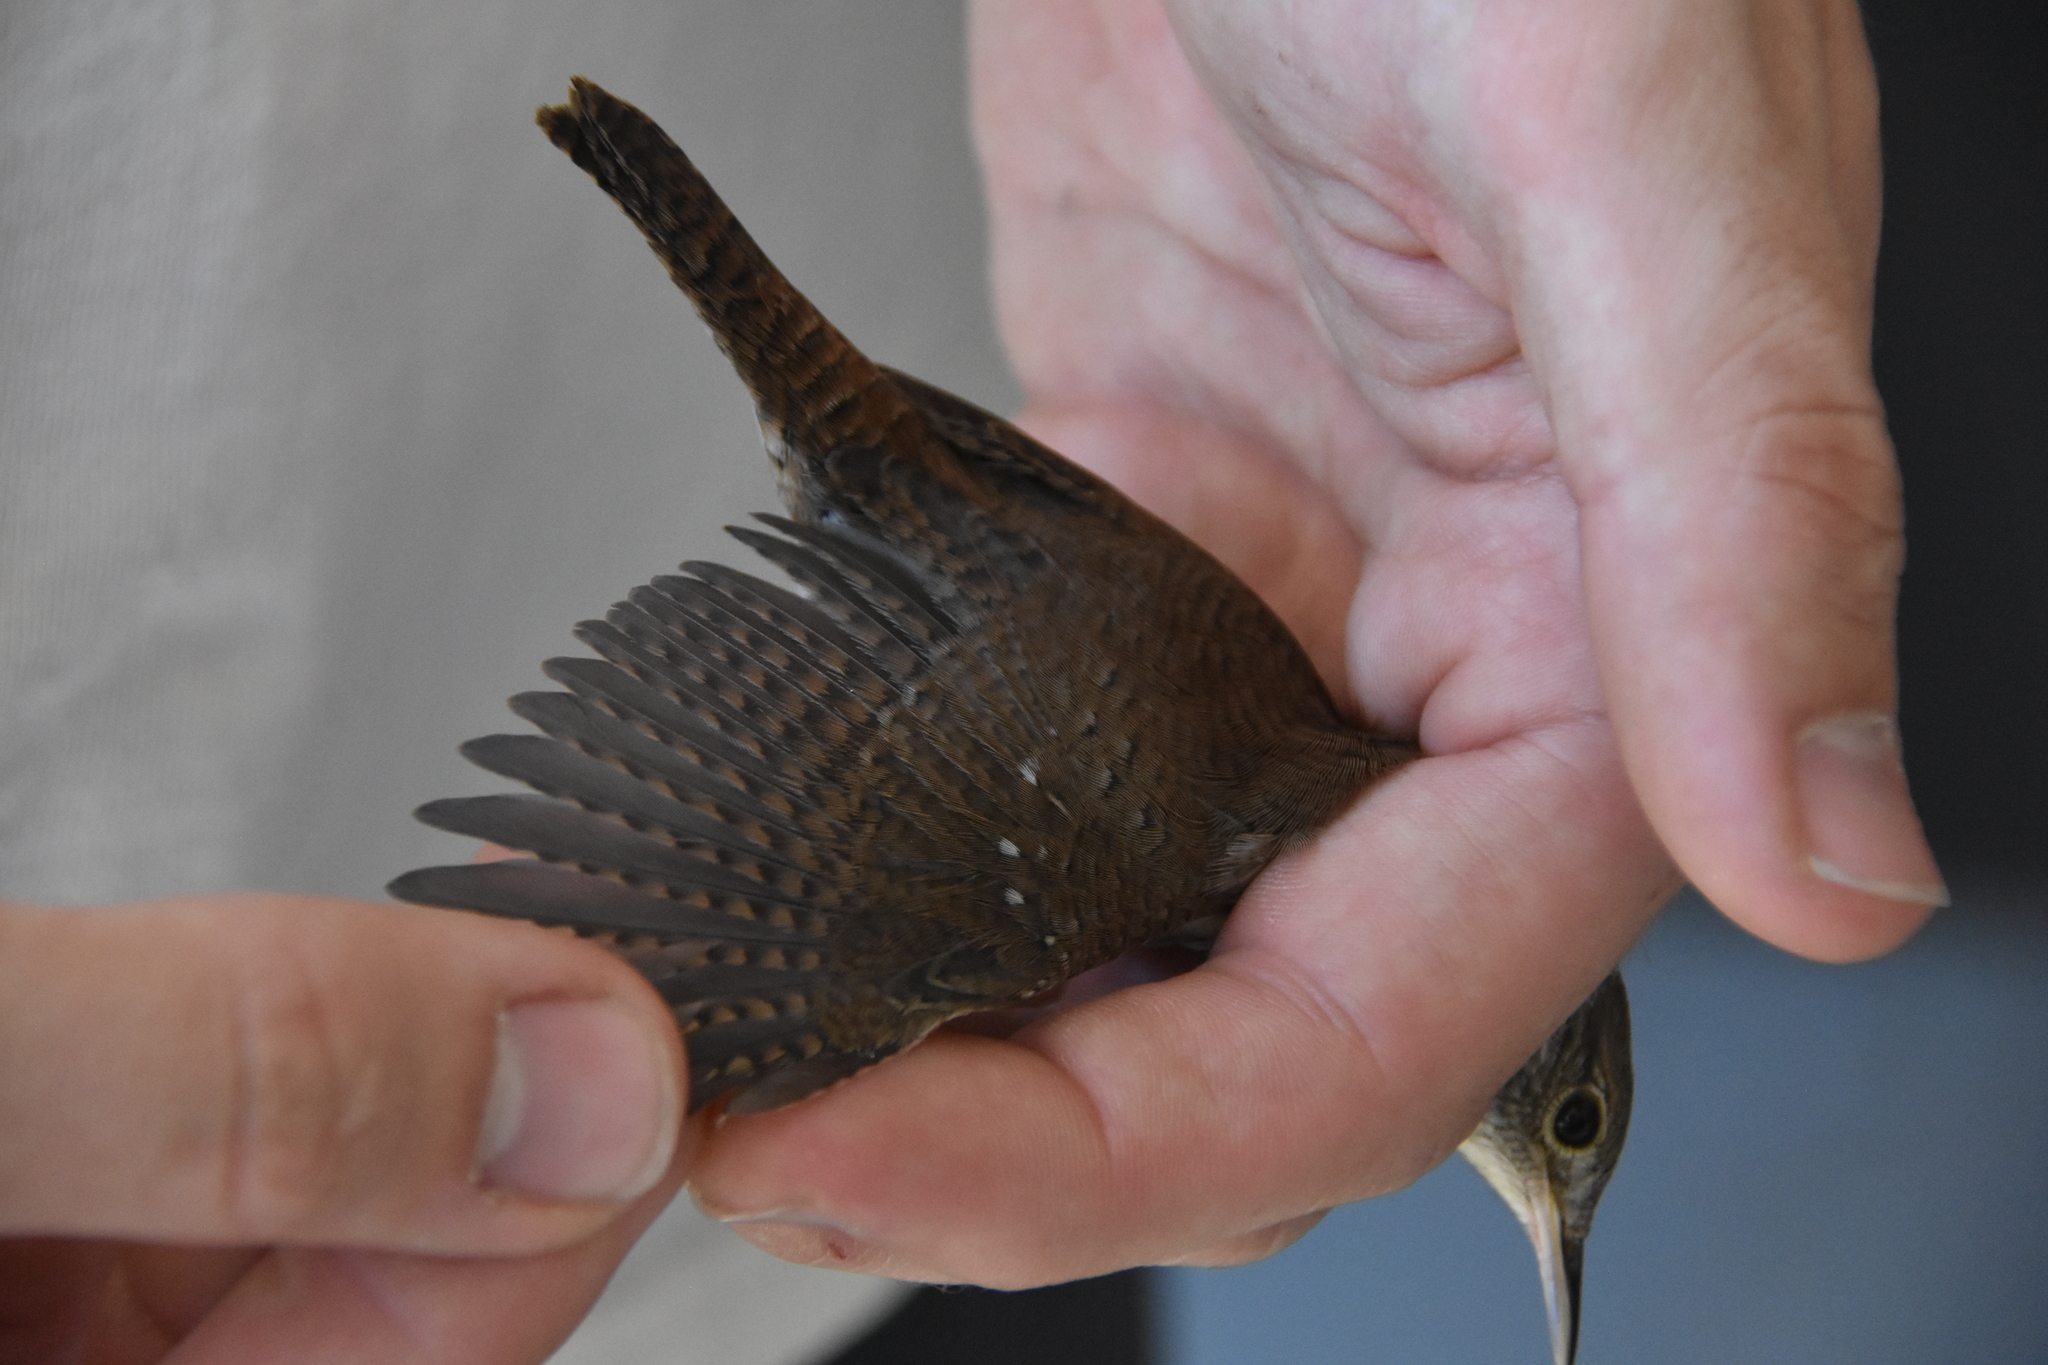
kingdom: Animalia
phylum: Chordata
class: Aves
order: Passeriformes
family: Troglodytidae
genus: Thryothorus
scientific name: Thryothorus ludovicianus
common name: Carolina wren
